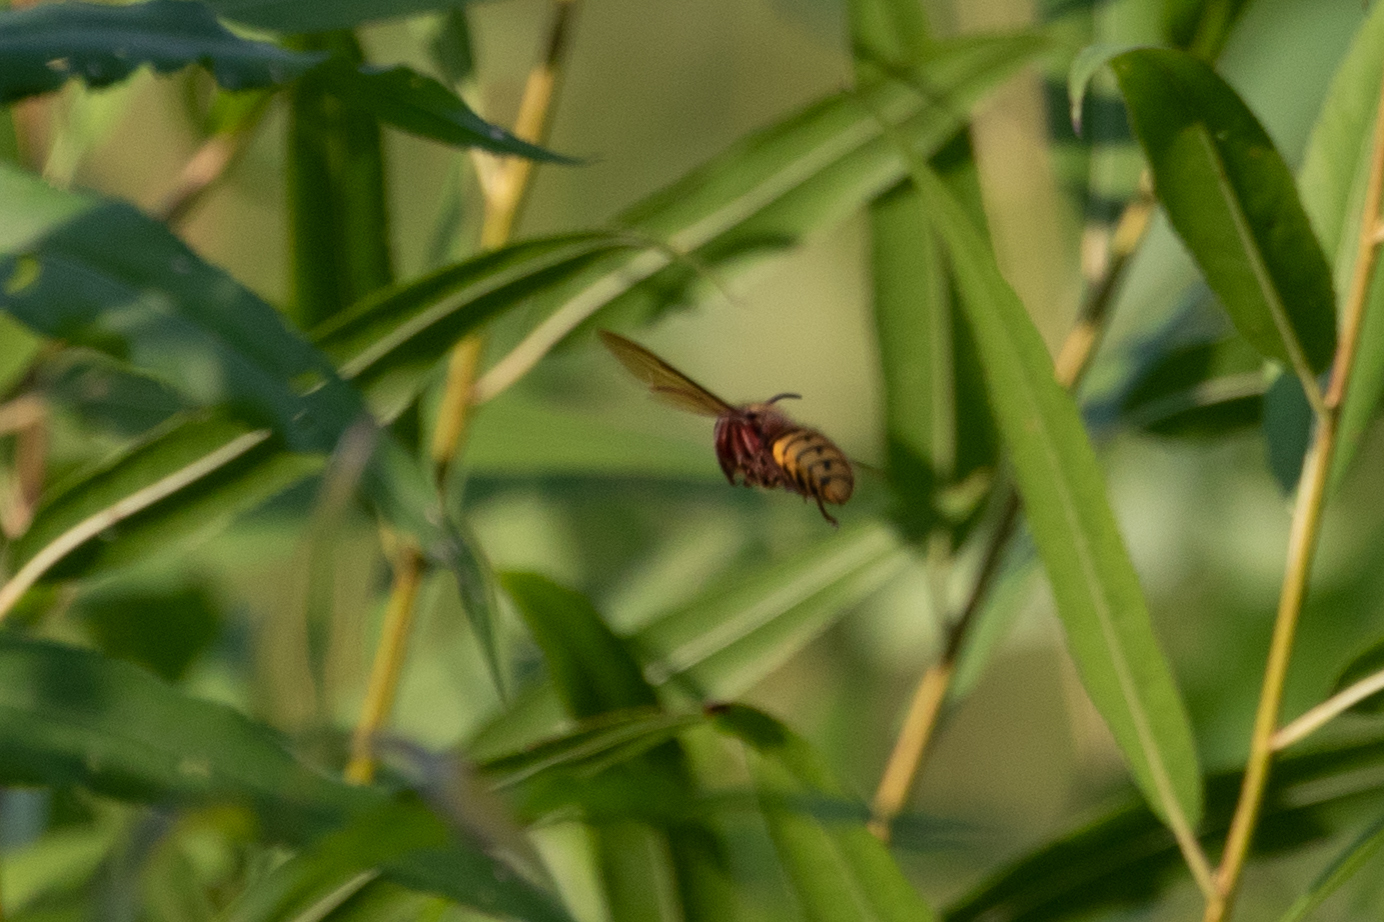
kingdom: Animalia
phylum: Arthropoda
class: Insecta
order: Hymenoptera
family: Vespidae
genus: Vespa
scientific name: Vespa crabro
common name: Hornet
